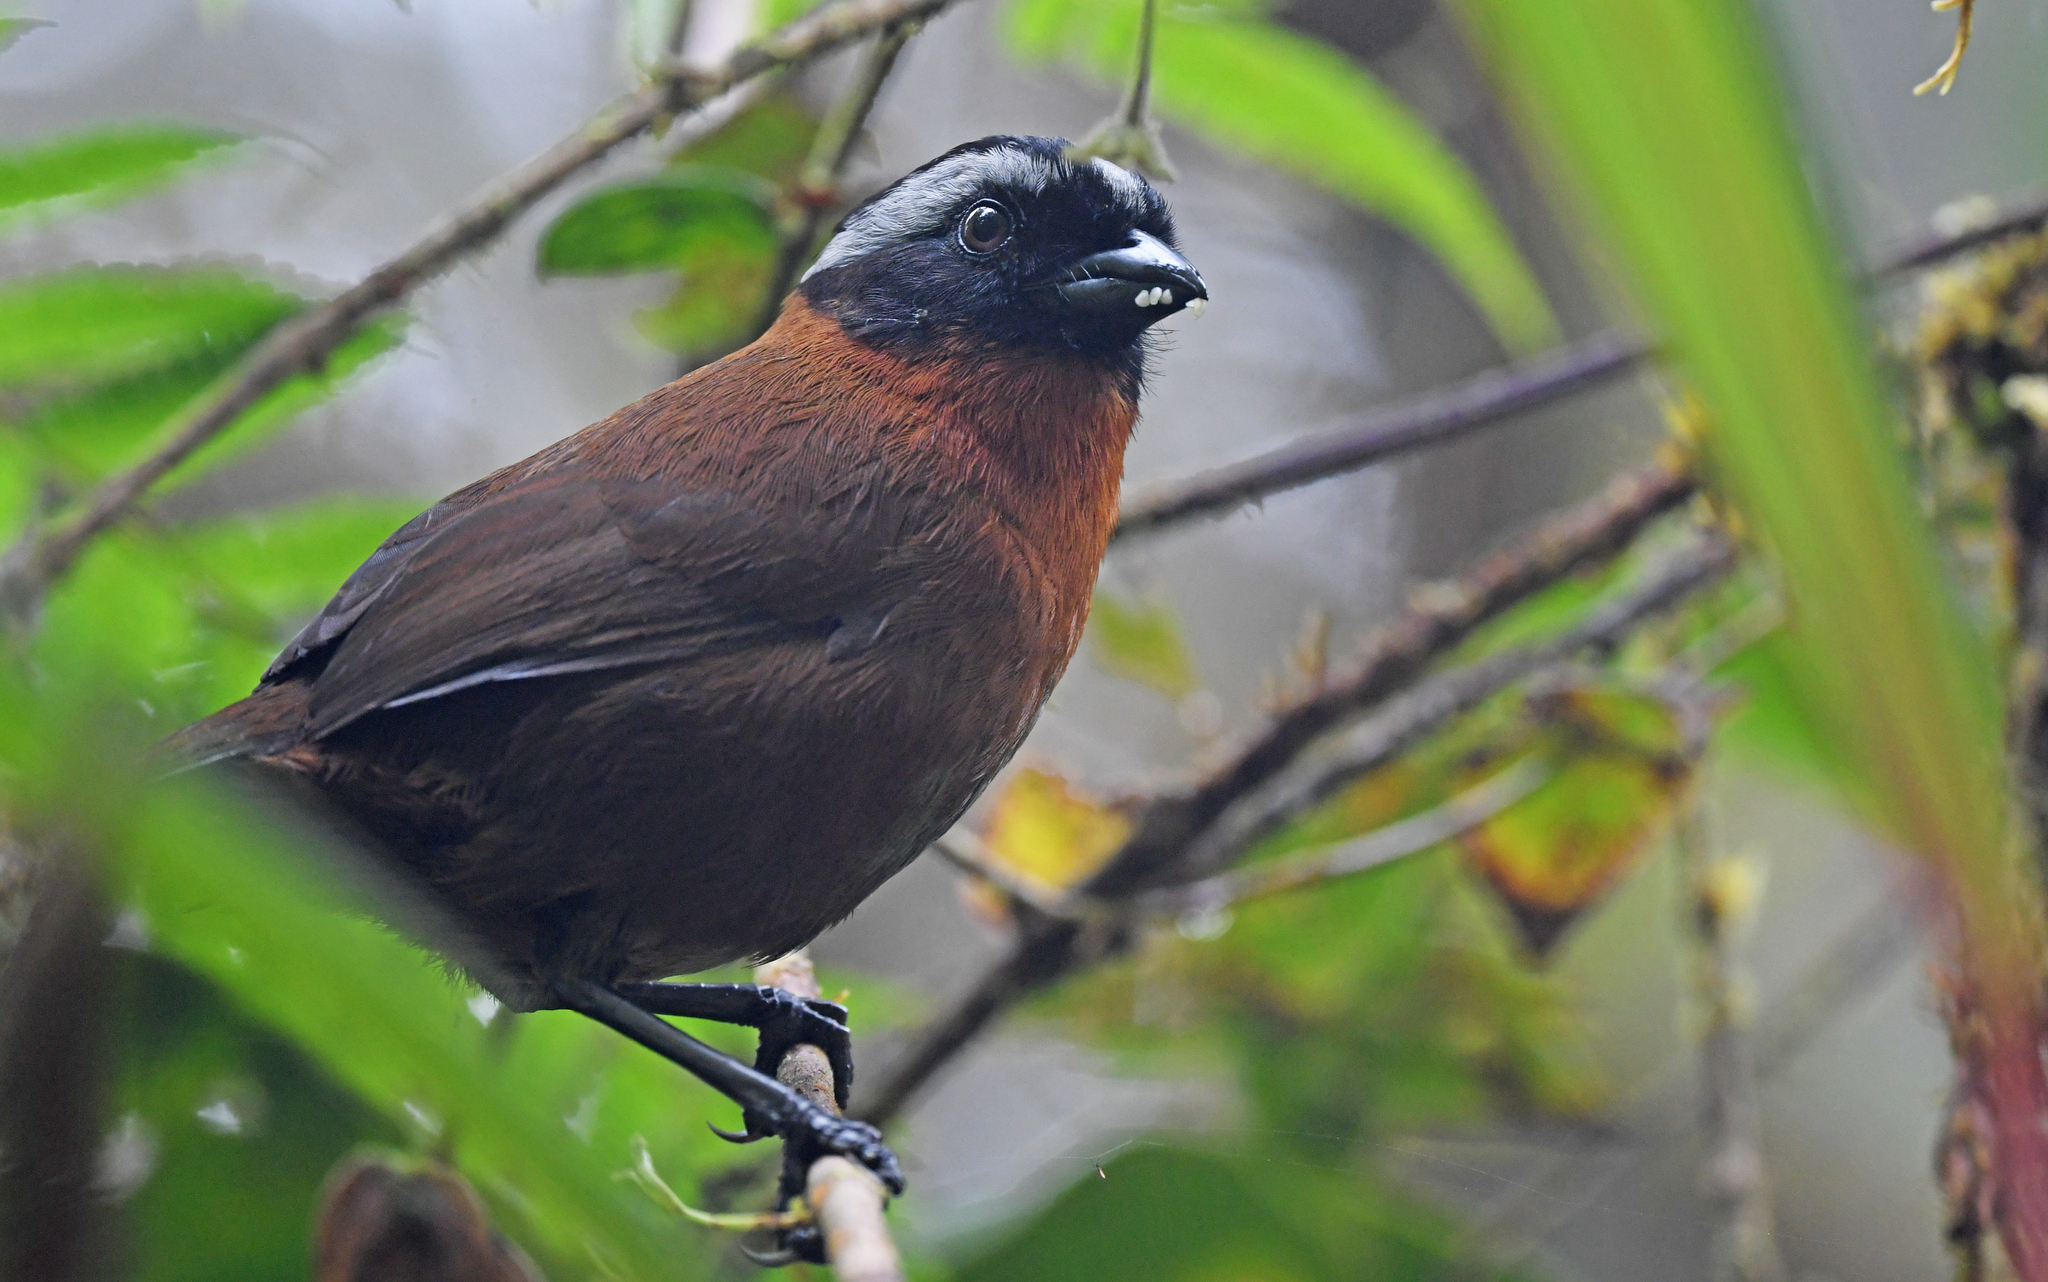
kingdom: Animalia
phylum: Chordata
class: Aves
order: Passeriformes
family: Passerellidae
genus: Oreothraupis
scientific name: Oreothraupis arremonops
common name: Tanager finch
